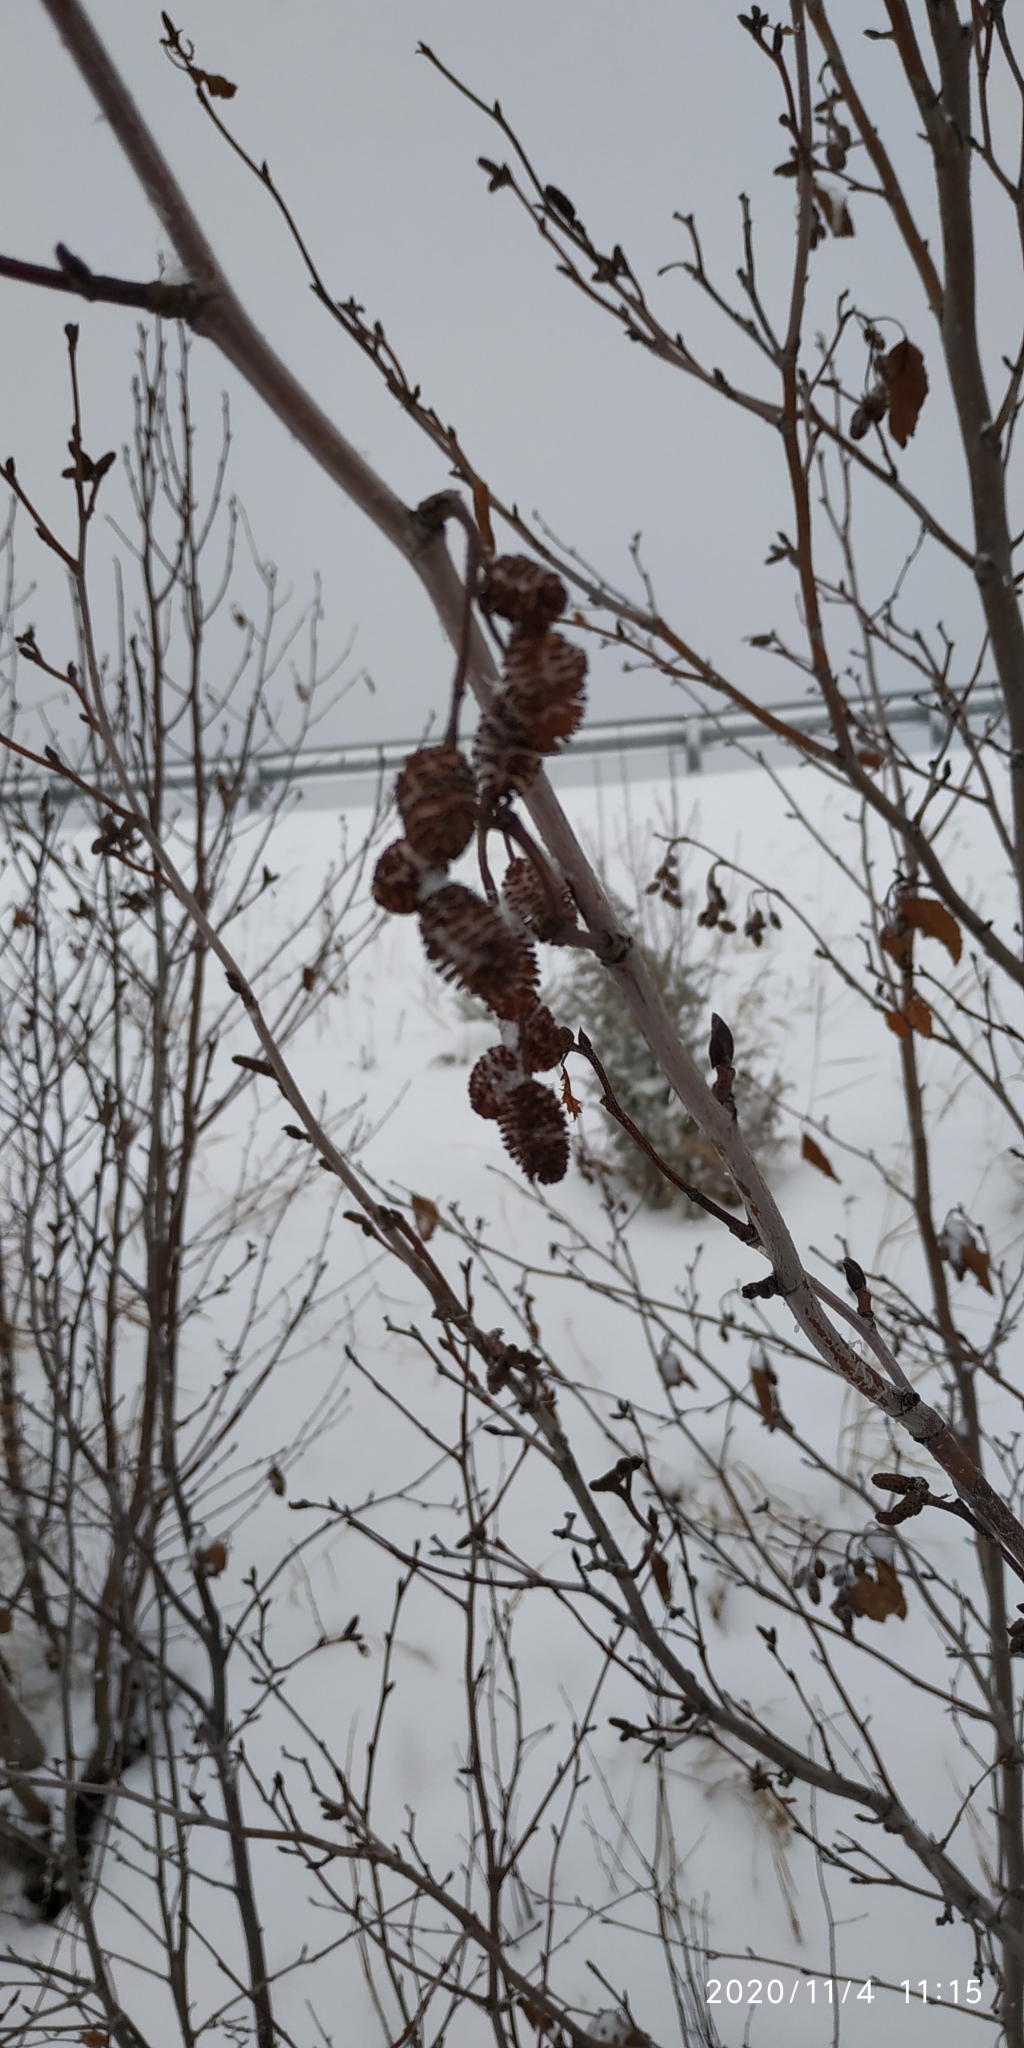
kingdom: Plantae
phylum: Tracheophyta
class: Magnoliopsida
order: Fagales
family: Betulaceae
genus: Alnus
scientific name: Alnus alnobetula
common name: Green alder
